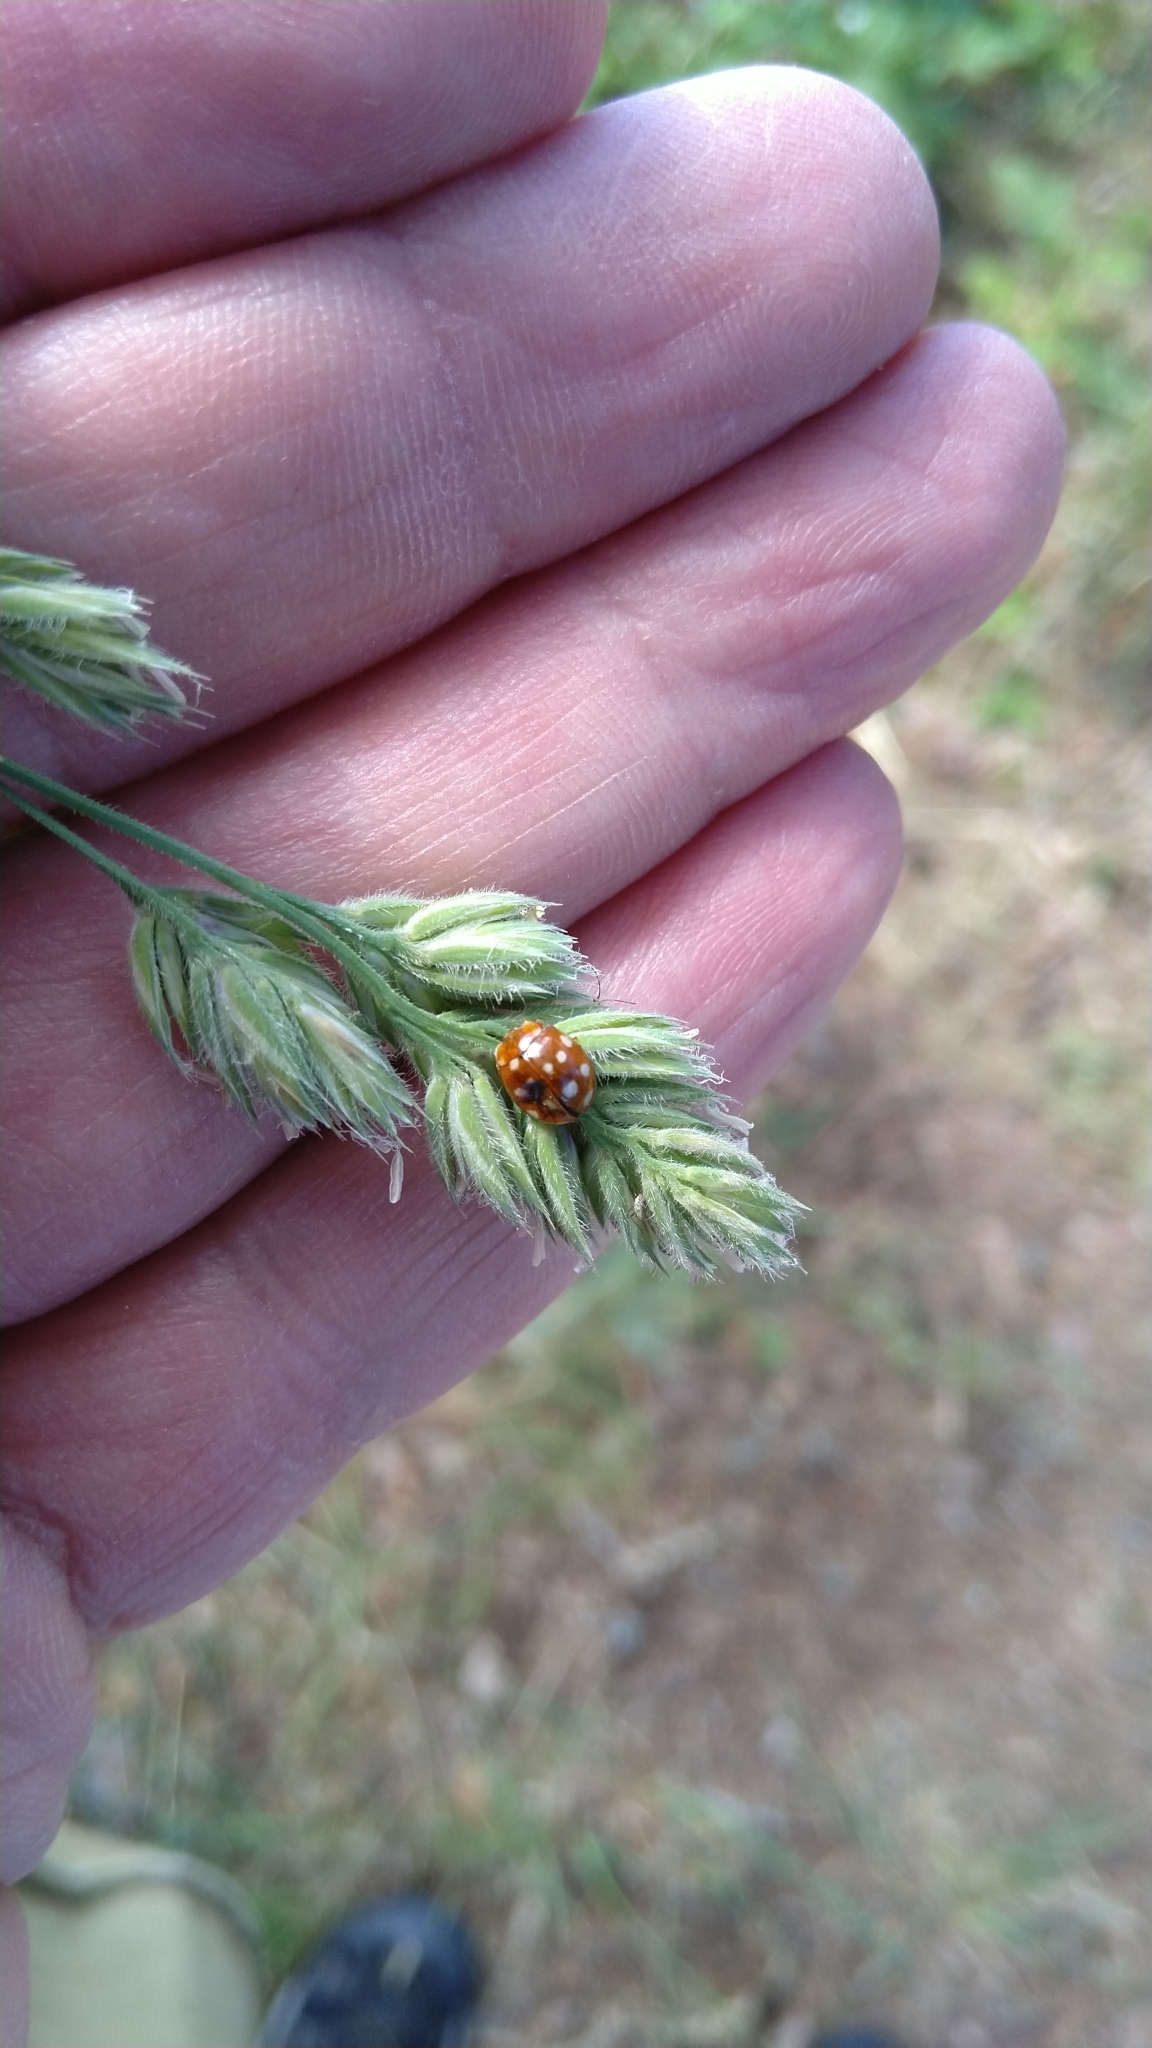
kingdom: Animalia
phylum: Arthropoda
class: Insecta
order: Coleoptera
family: Coccinellidae
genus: Calvia
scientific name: Calvia quatuordecimguttata
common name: Cream-spot ladybird
